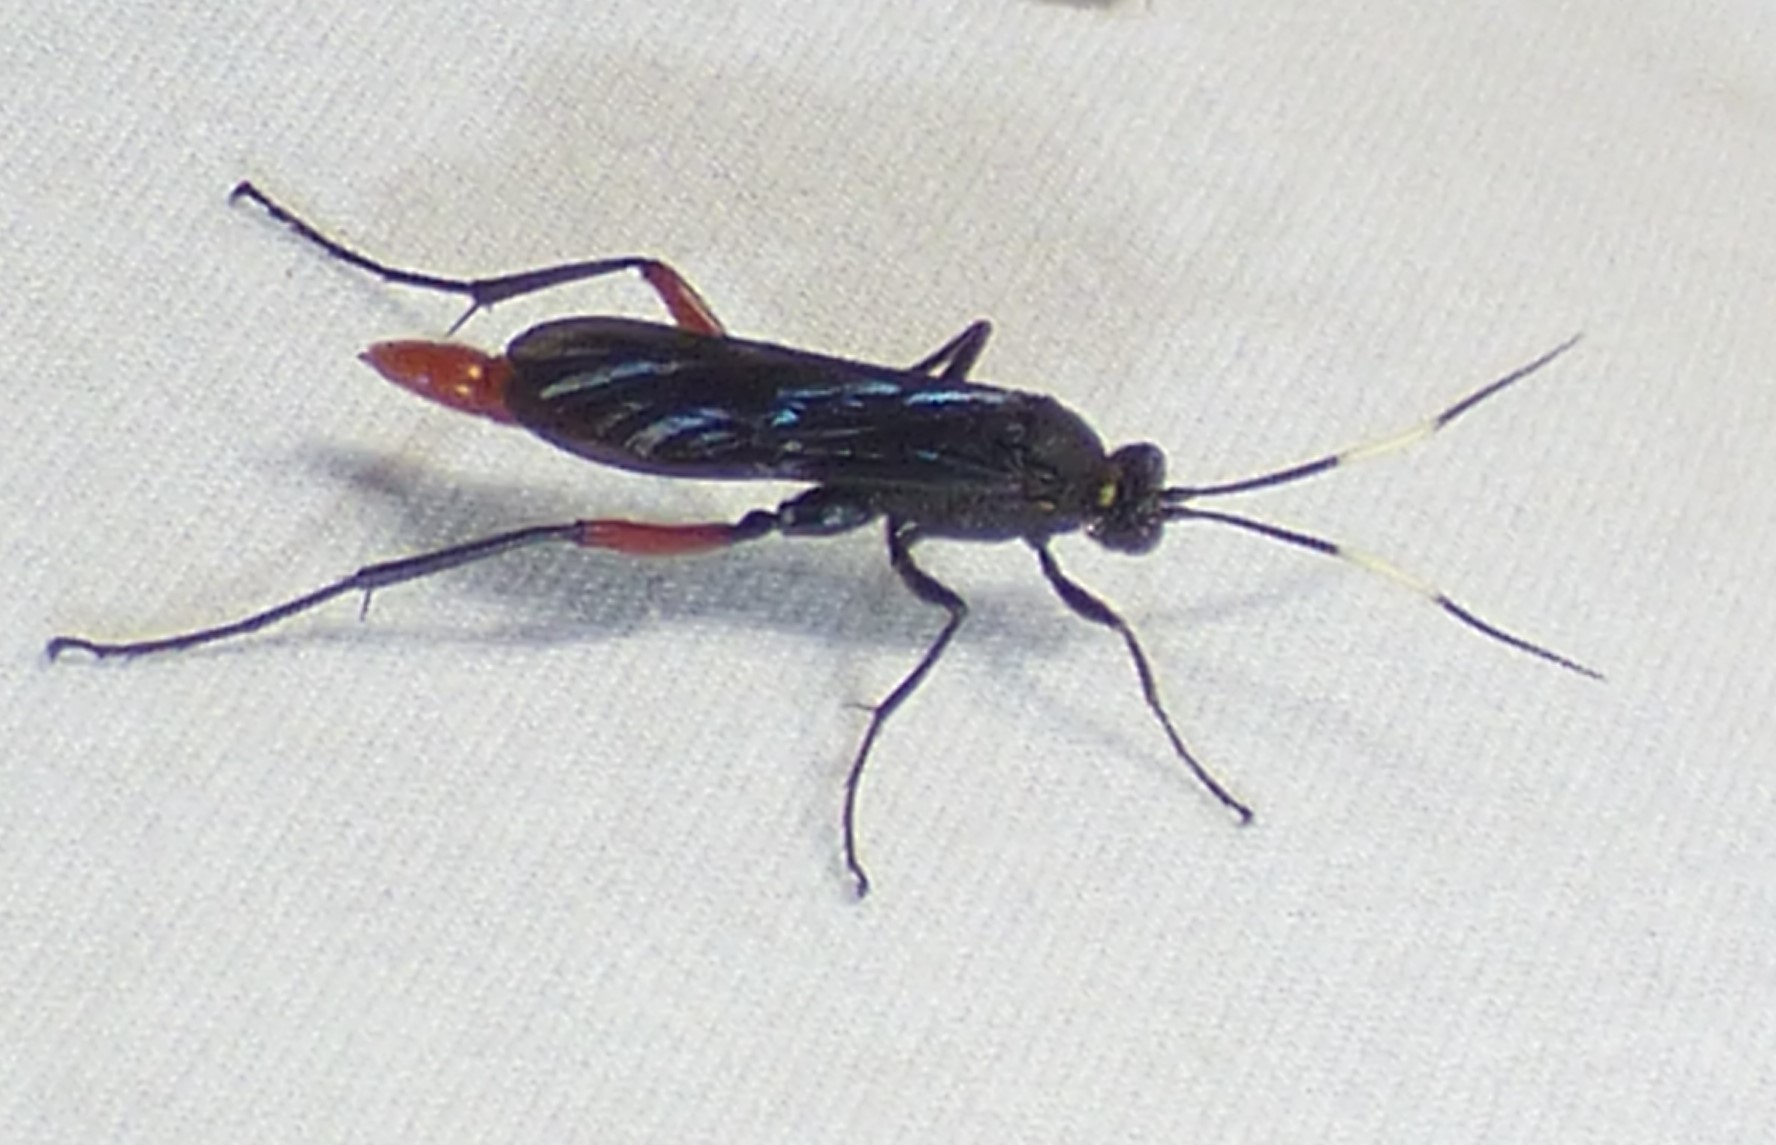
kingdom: Animalia
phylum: Arthropoda
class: Insecta
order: Hymenoptera
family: Ichneumonidae
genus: Limonethe
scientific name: Limonethe maurator
